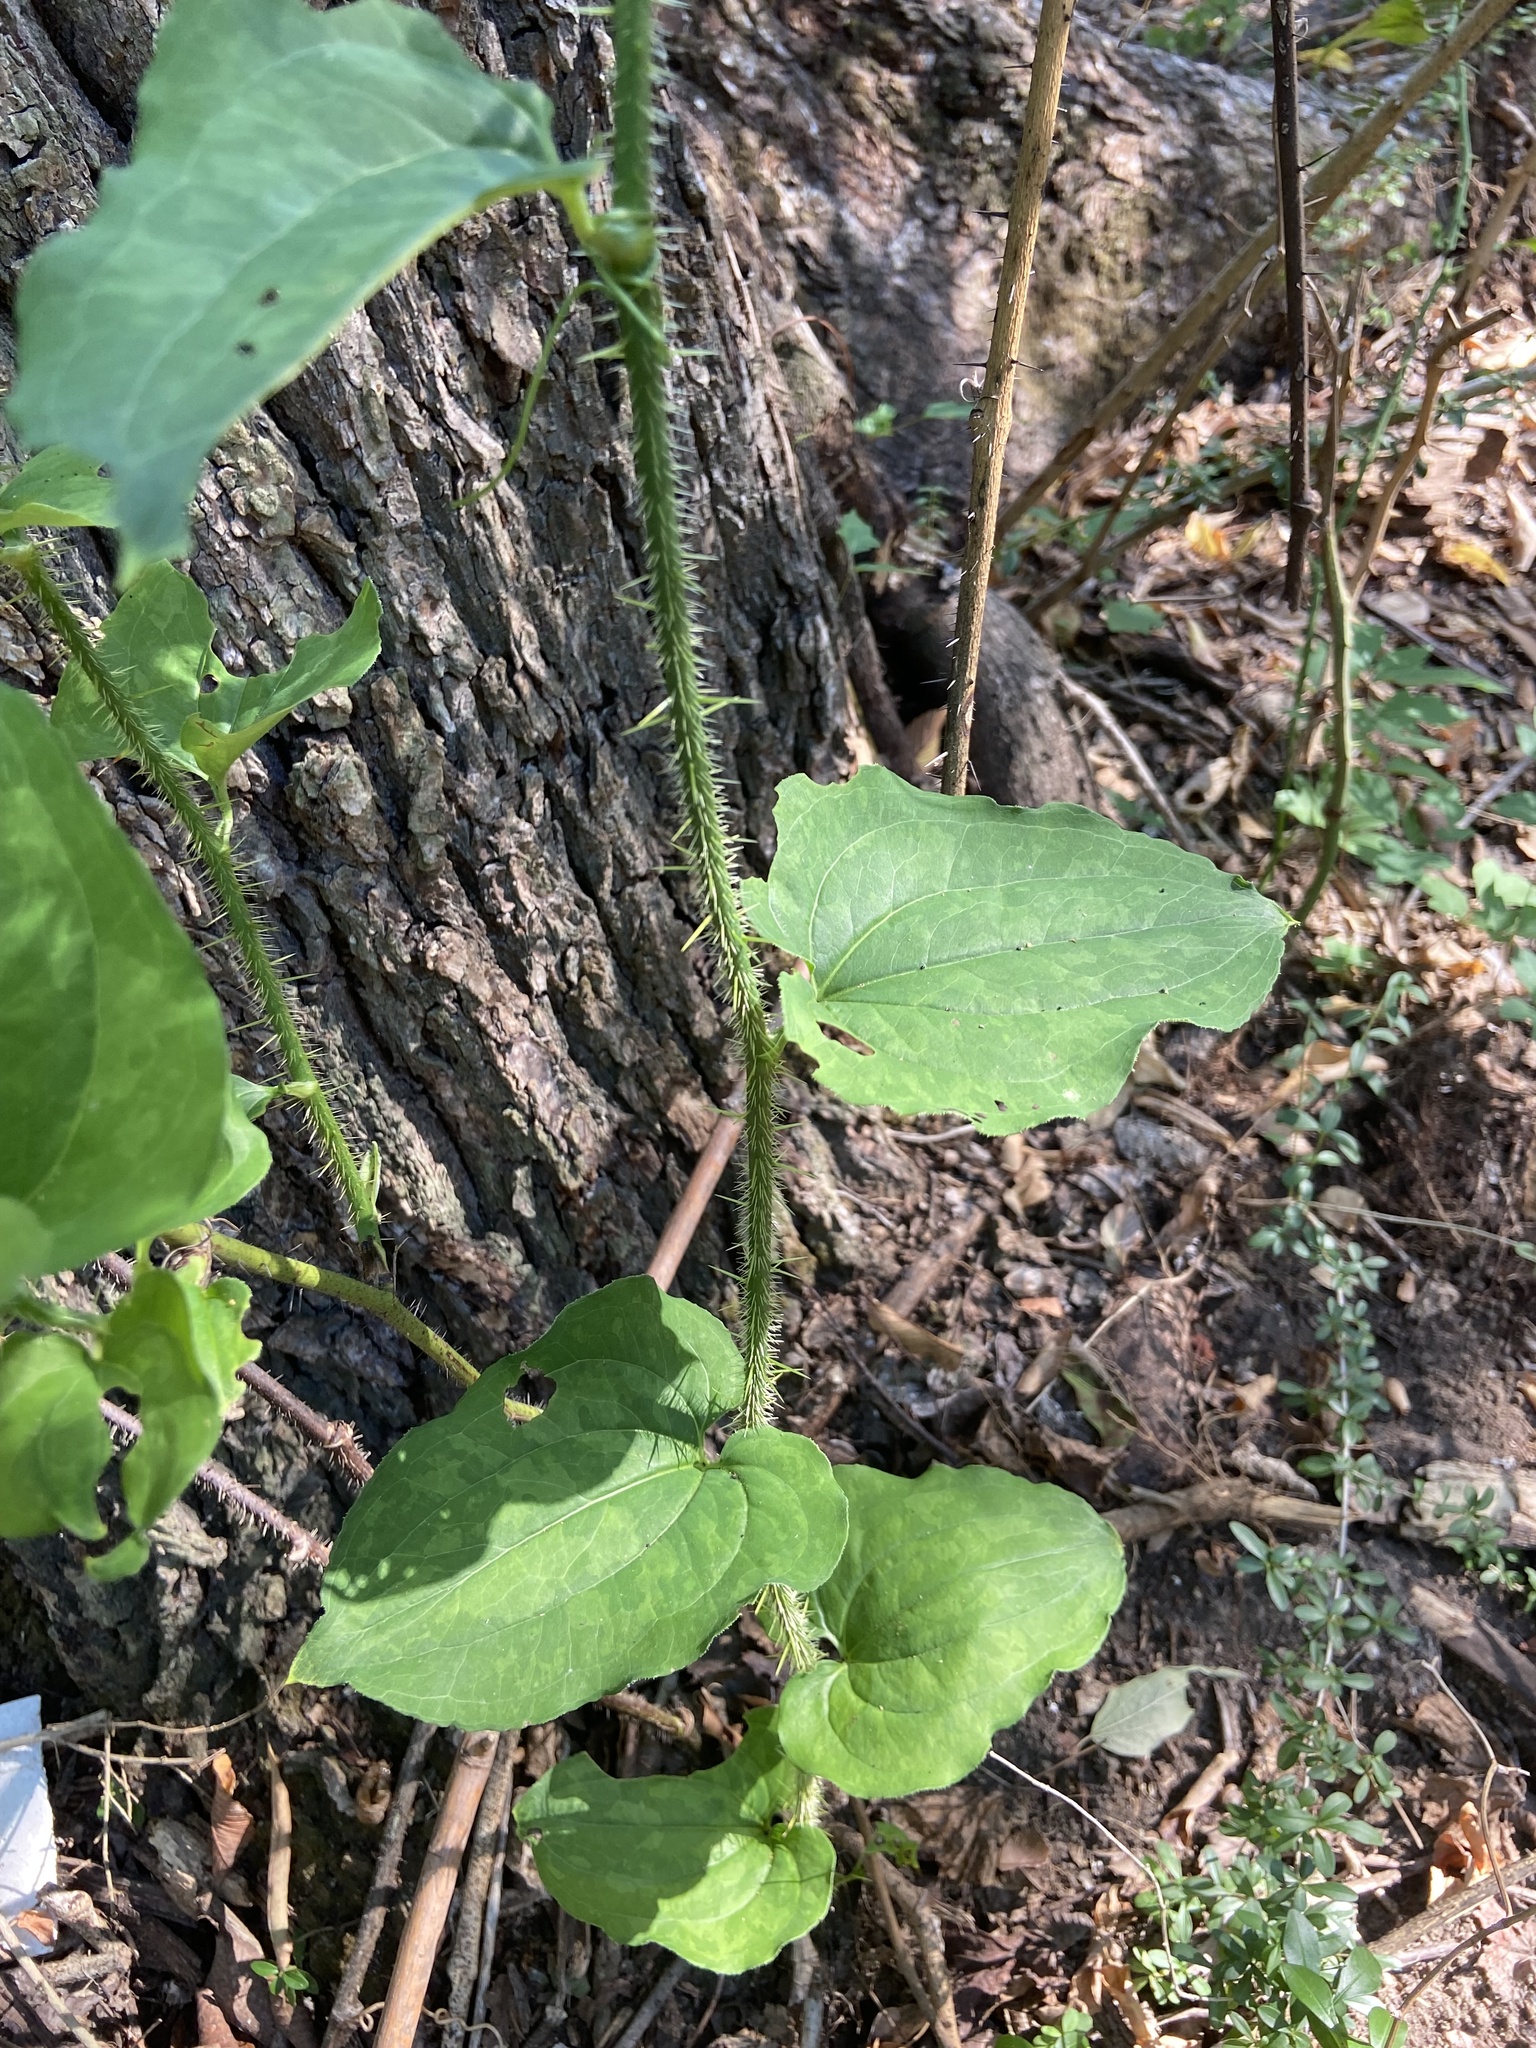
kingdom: Plantae
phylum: Tracheophyta
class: Liliopsida
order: Liliales
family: Smilacaceae
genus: Smilax
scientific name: Smilax tamnoides
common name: Hellfetter
